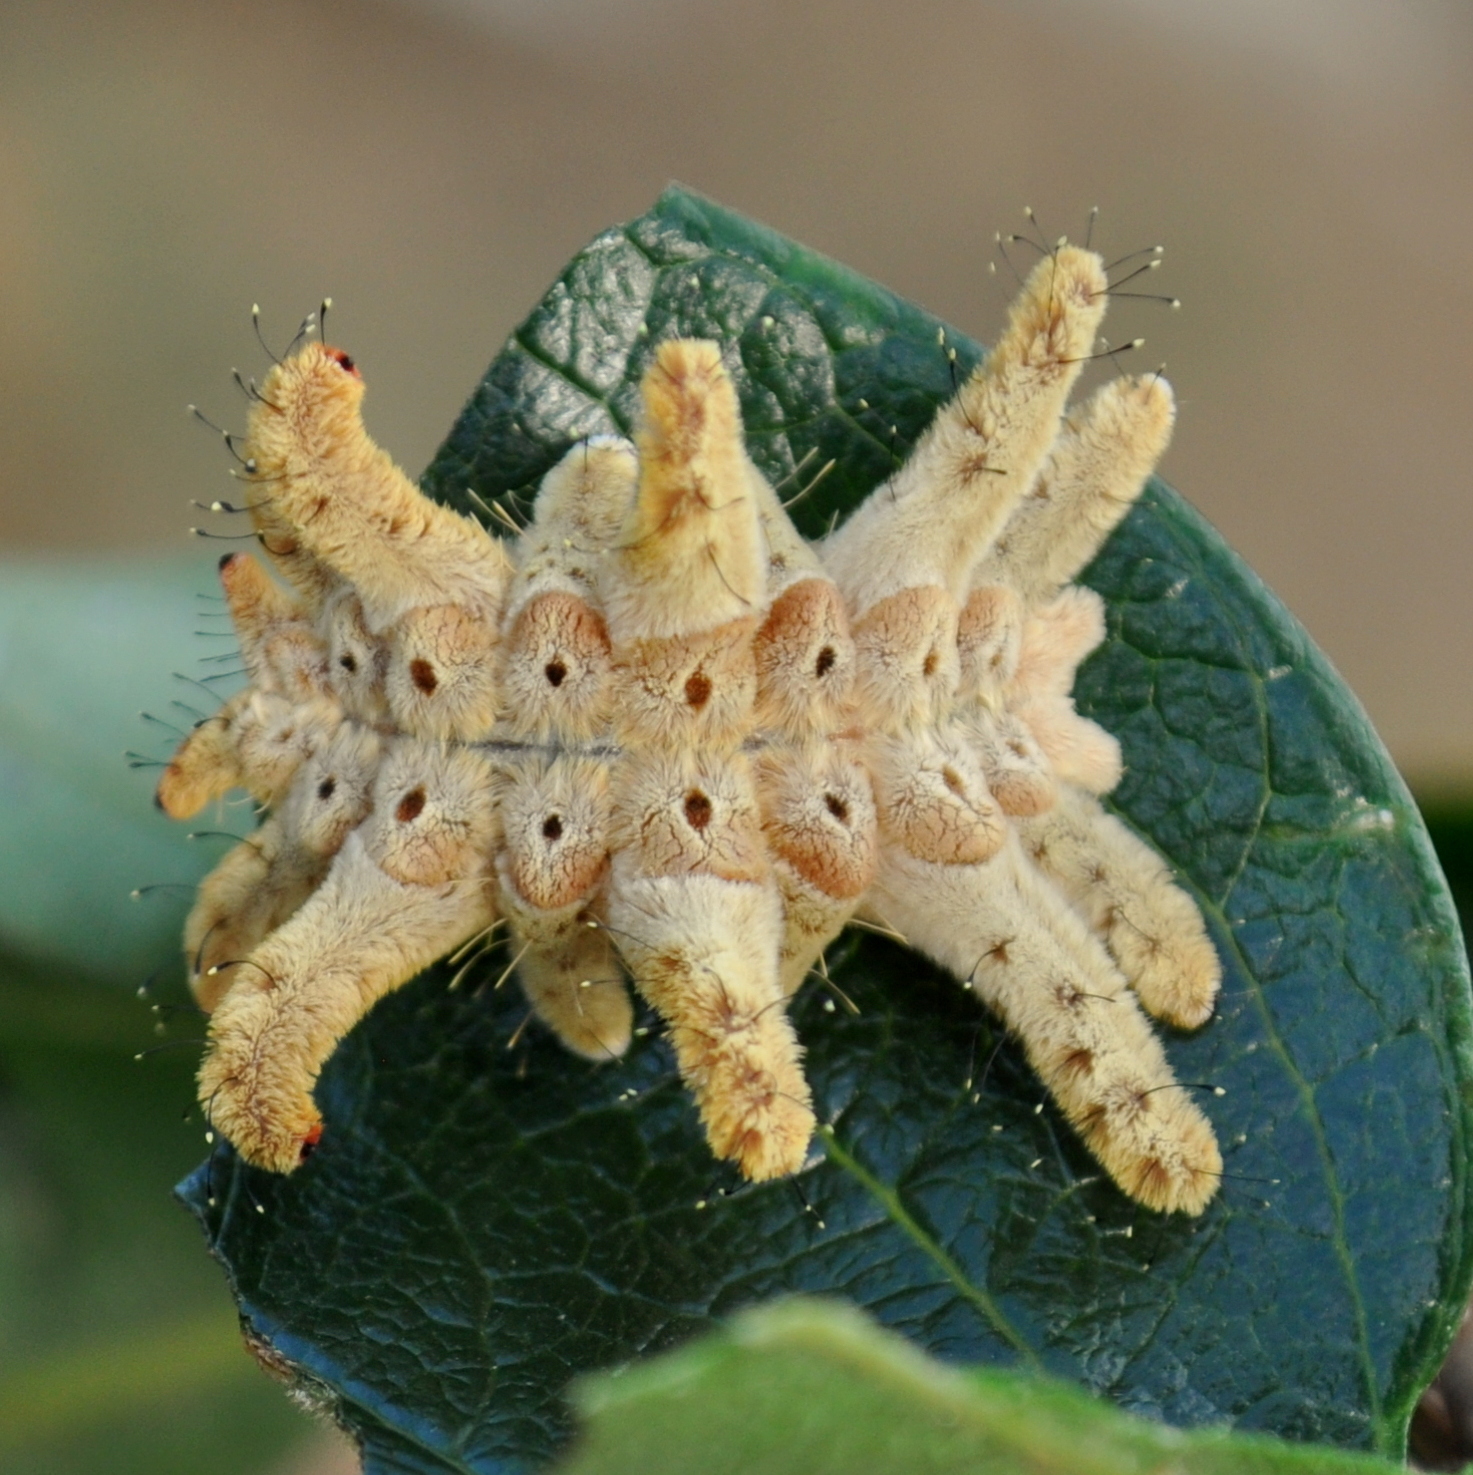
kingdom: Animalia
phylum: Arthropoda
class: Insecta
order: Lepidoptera
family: Limacodidae
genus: Phobetron
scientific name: Phobetron hipparchia
